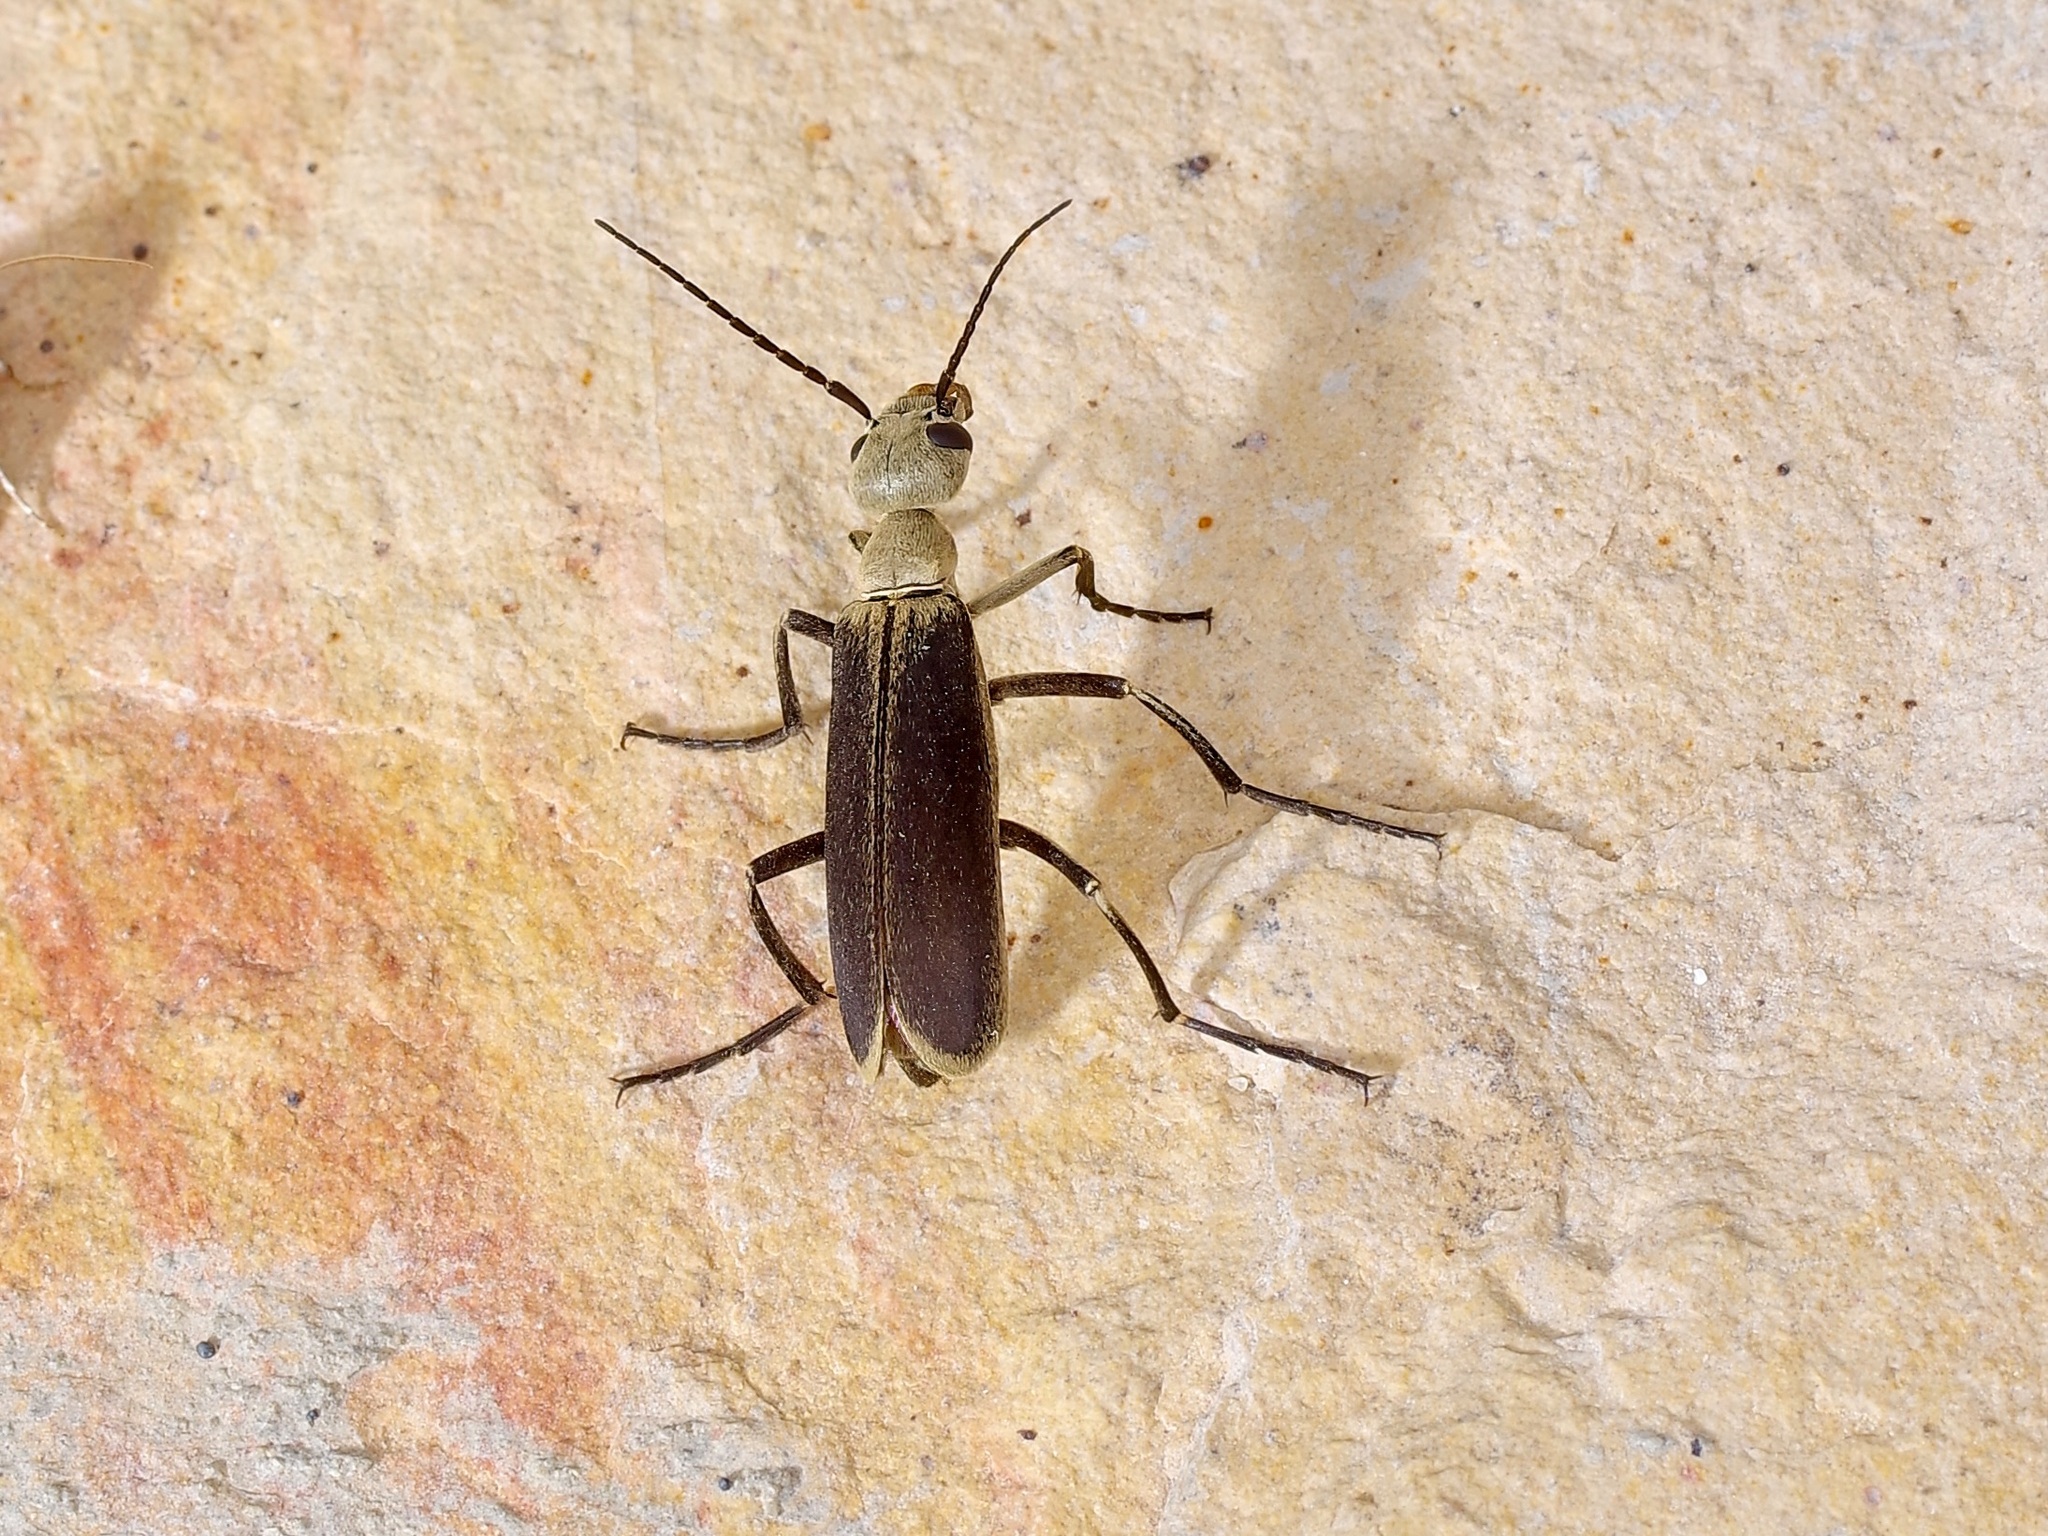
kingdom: Animalia
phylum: Arthropoda
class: Insecta
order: Coleoptera
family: Meloidae
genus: Epicauta
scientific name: Epicauta sublineata
